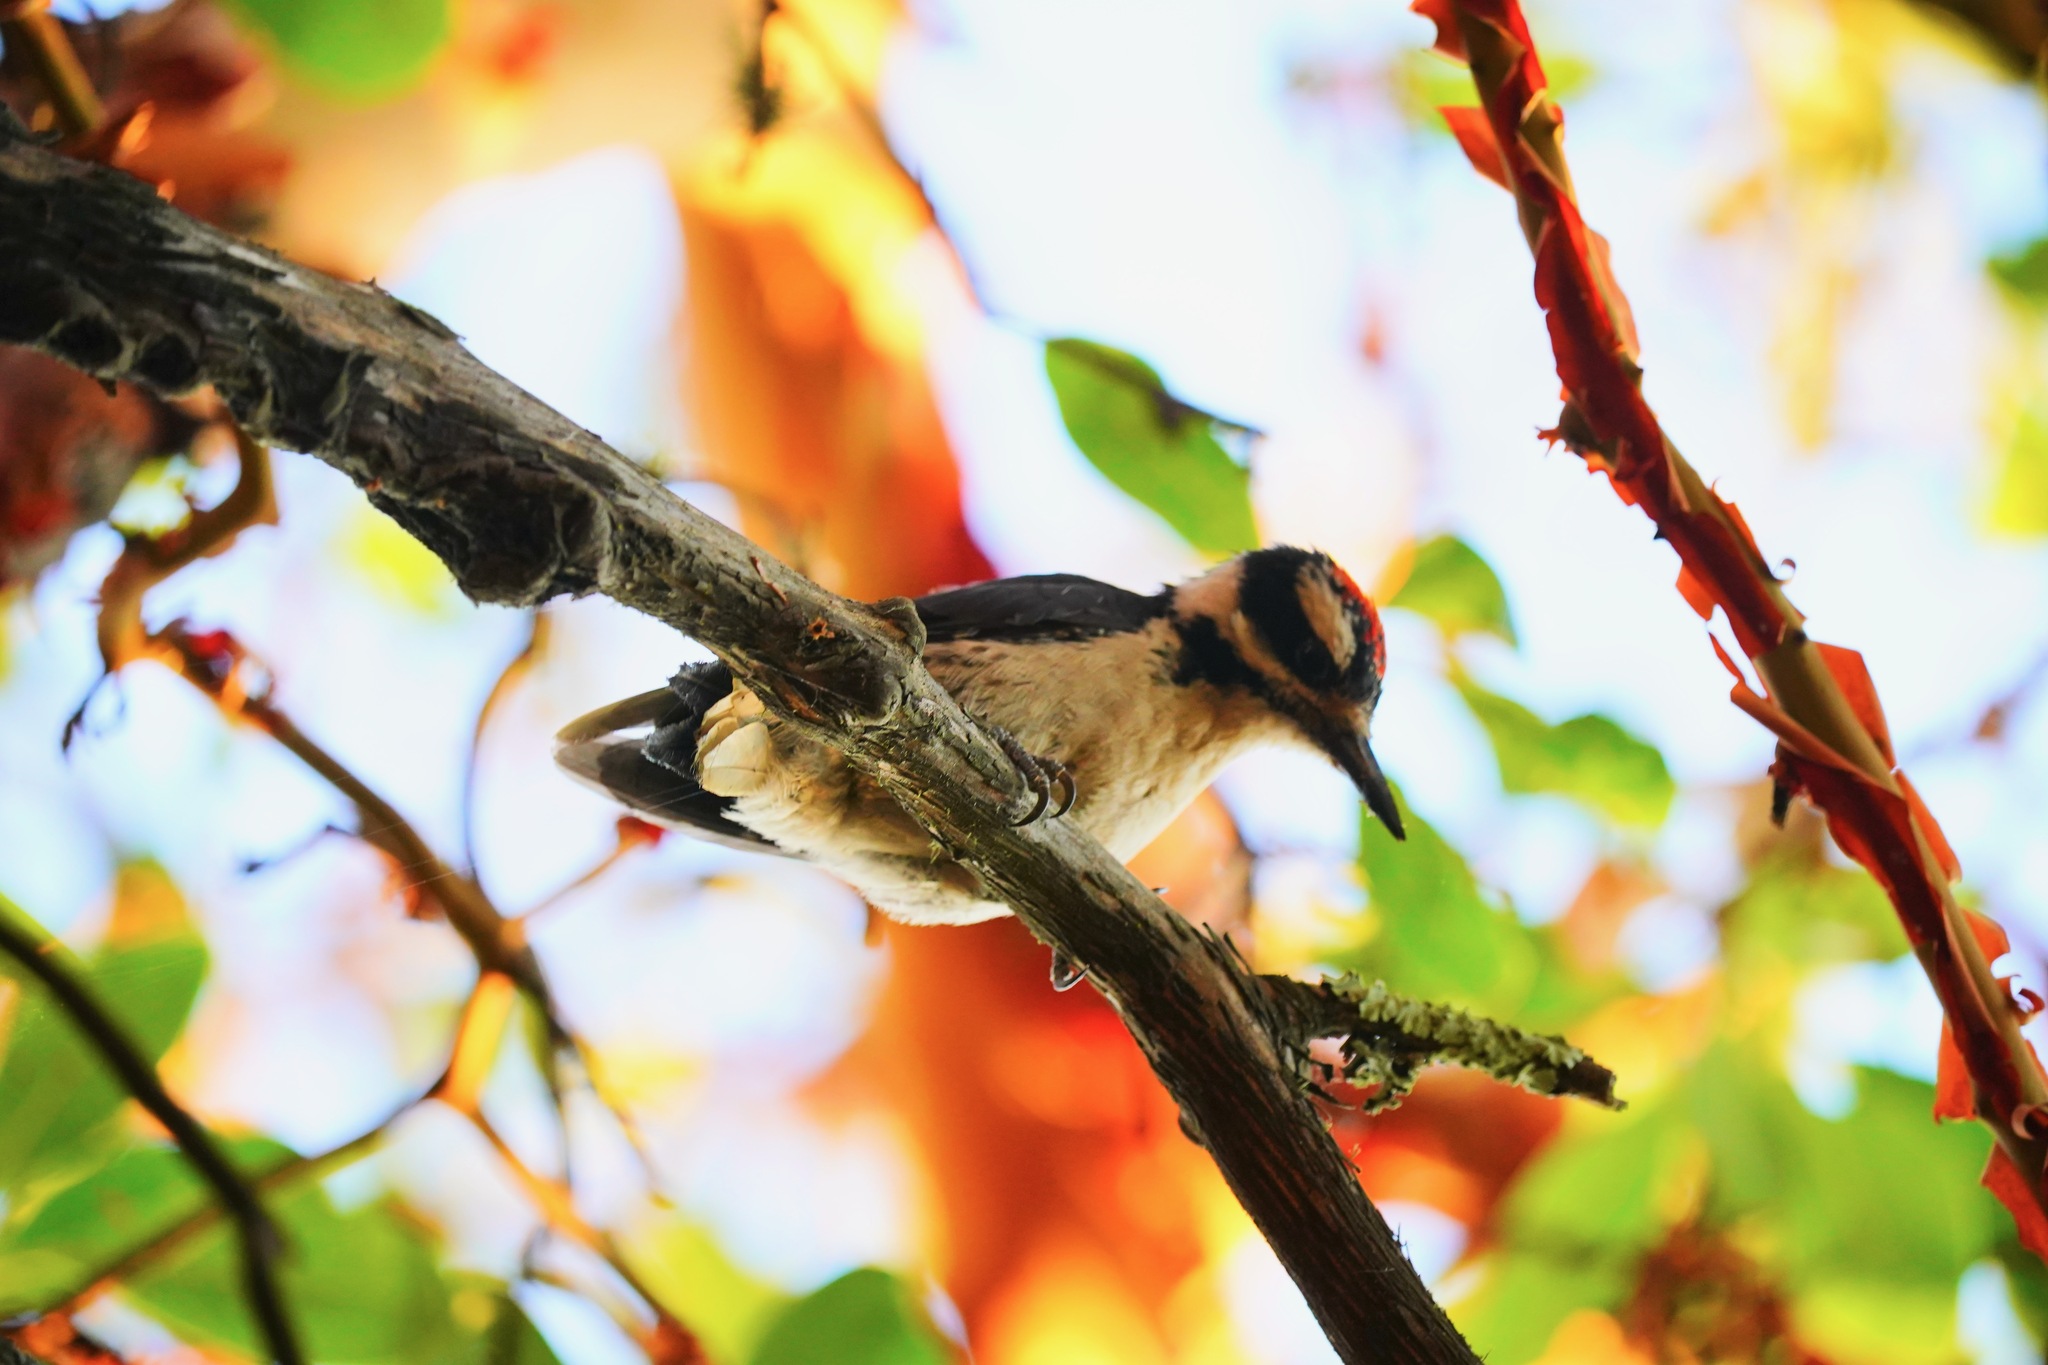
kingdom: Animalia
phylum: Chordata
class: Aves
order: Piciformes
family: Picidae
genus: Leuconotopicus
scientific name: Leuconotopicus villosus
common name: Hairy woodpecker
